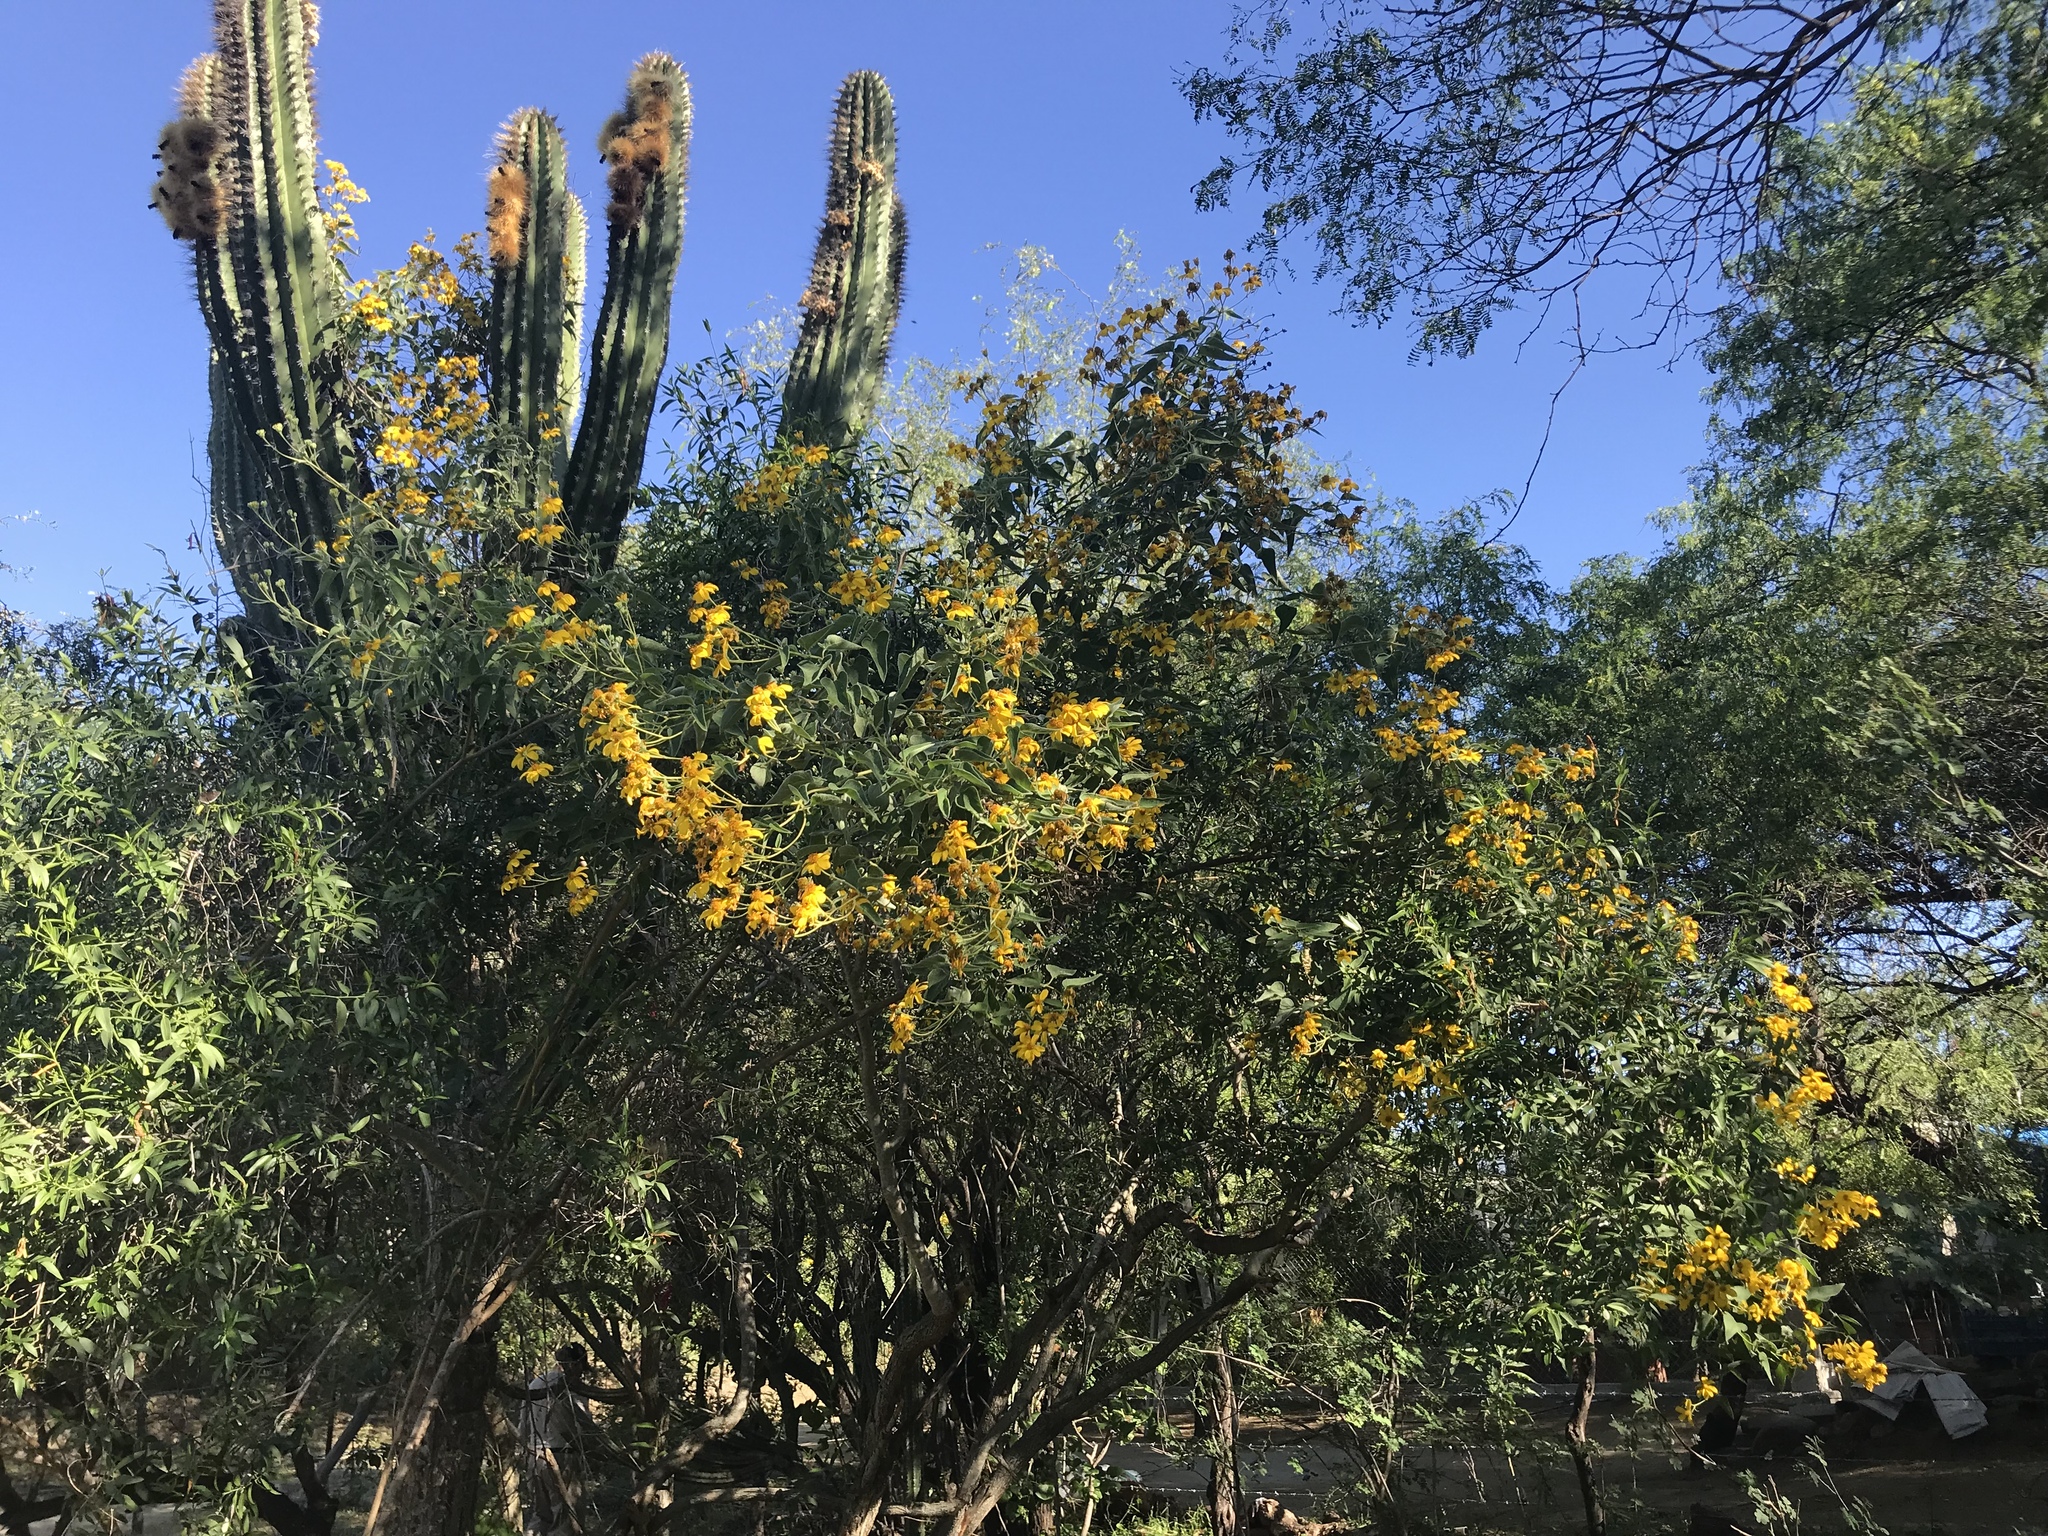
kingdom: Plantae
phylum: Tracheophyta
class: Magnoliopsida
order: Asterales
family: Asteraceae
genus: Bahiopsis
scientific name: Bahiopsis tomentosa
